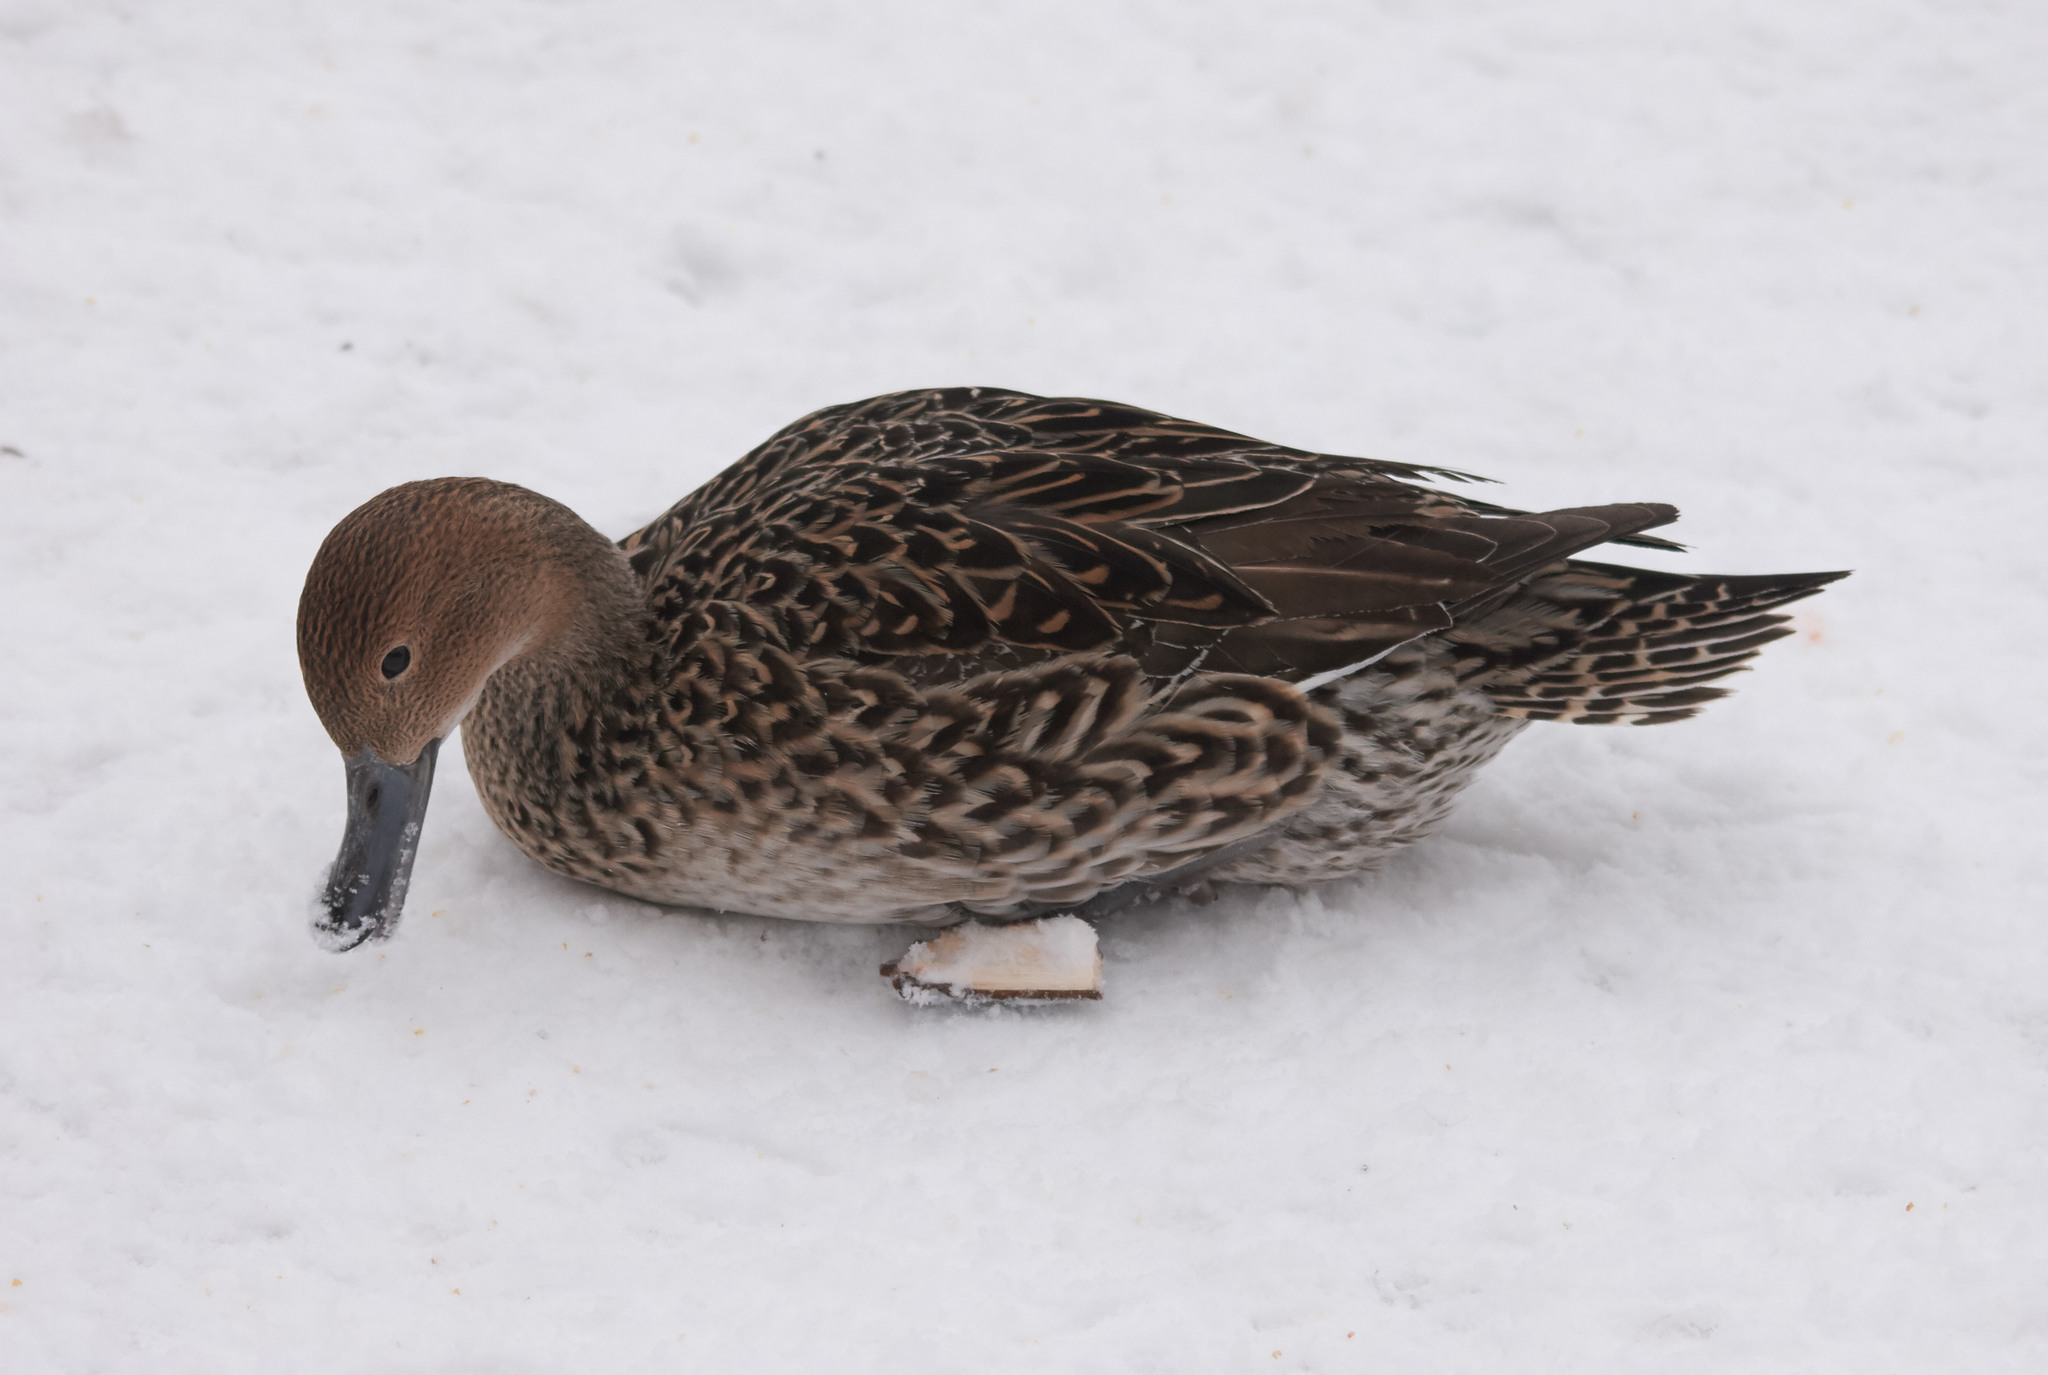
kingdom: Animalia
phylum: Chordata
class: Aves
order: Anseriformes
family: Anatidae
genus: Anas
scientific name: Anas acuta
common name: Northern pintail
